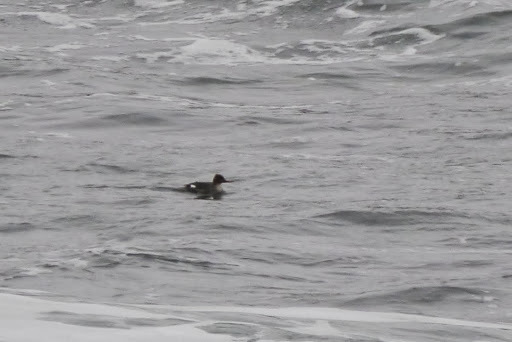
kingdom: Animalia
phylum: Chordata
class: Aves
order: Anseriformes
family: Anatidae
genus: Mergus
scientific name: Mergus serrator
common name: Red-breasted merganser
